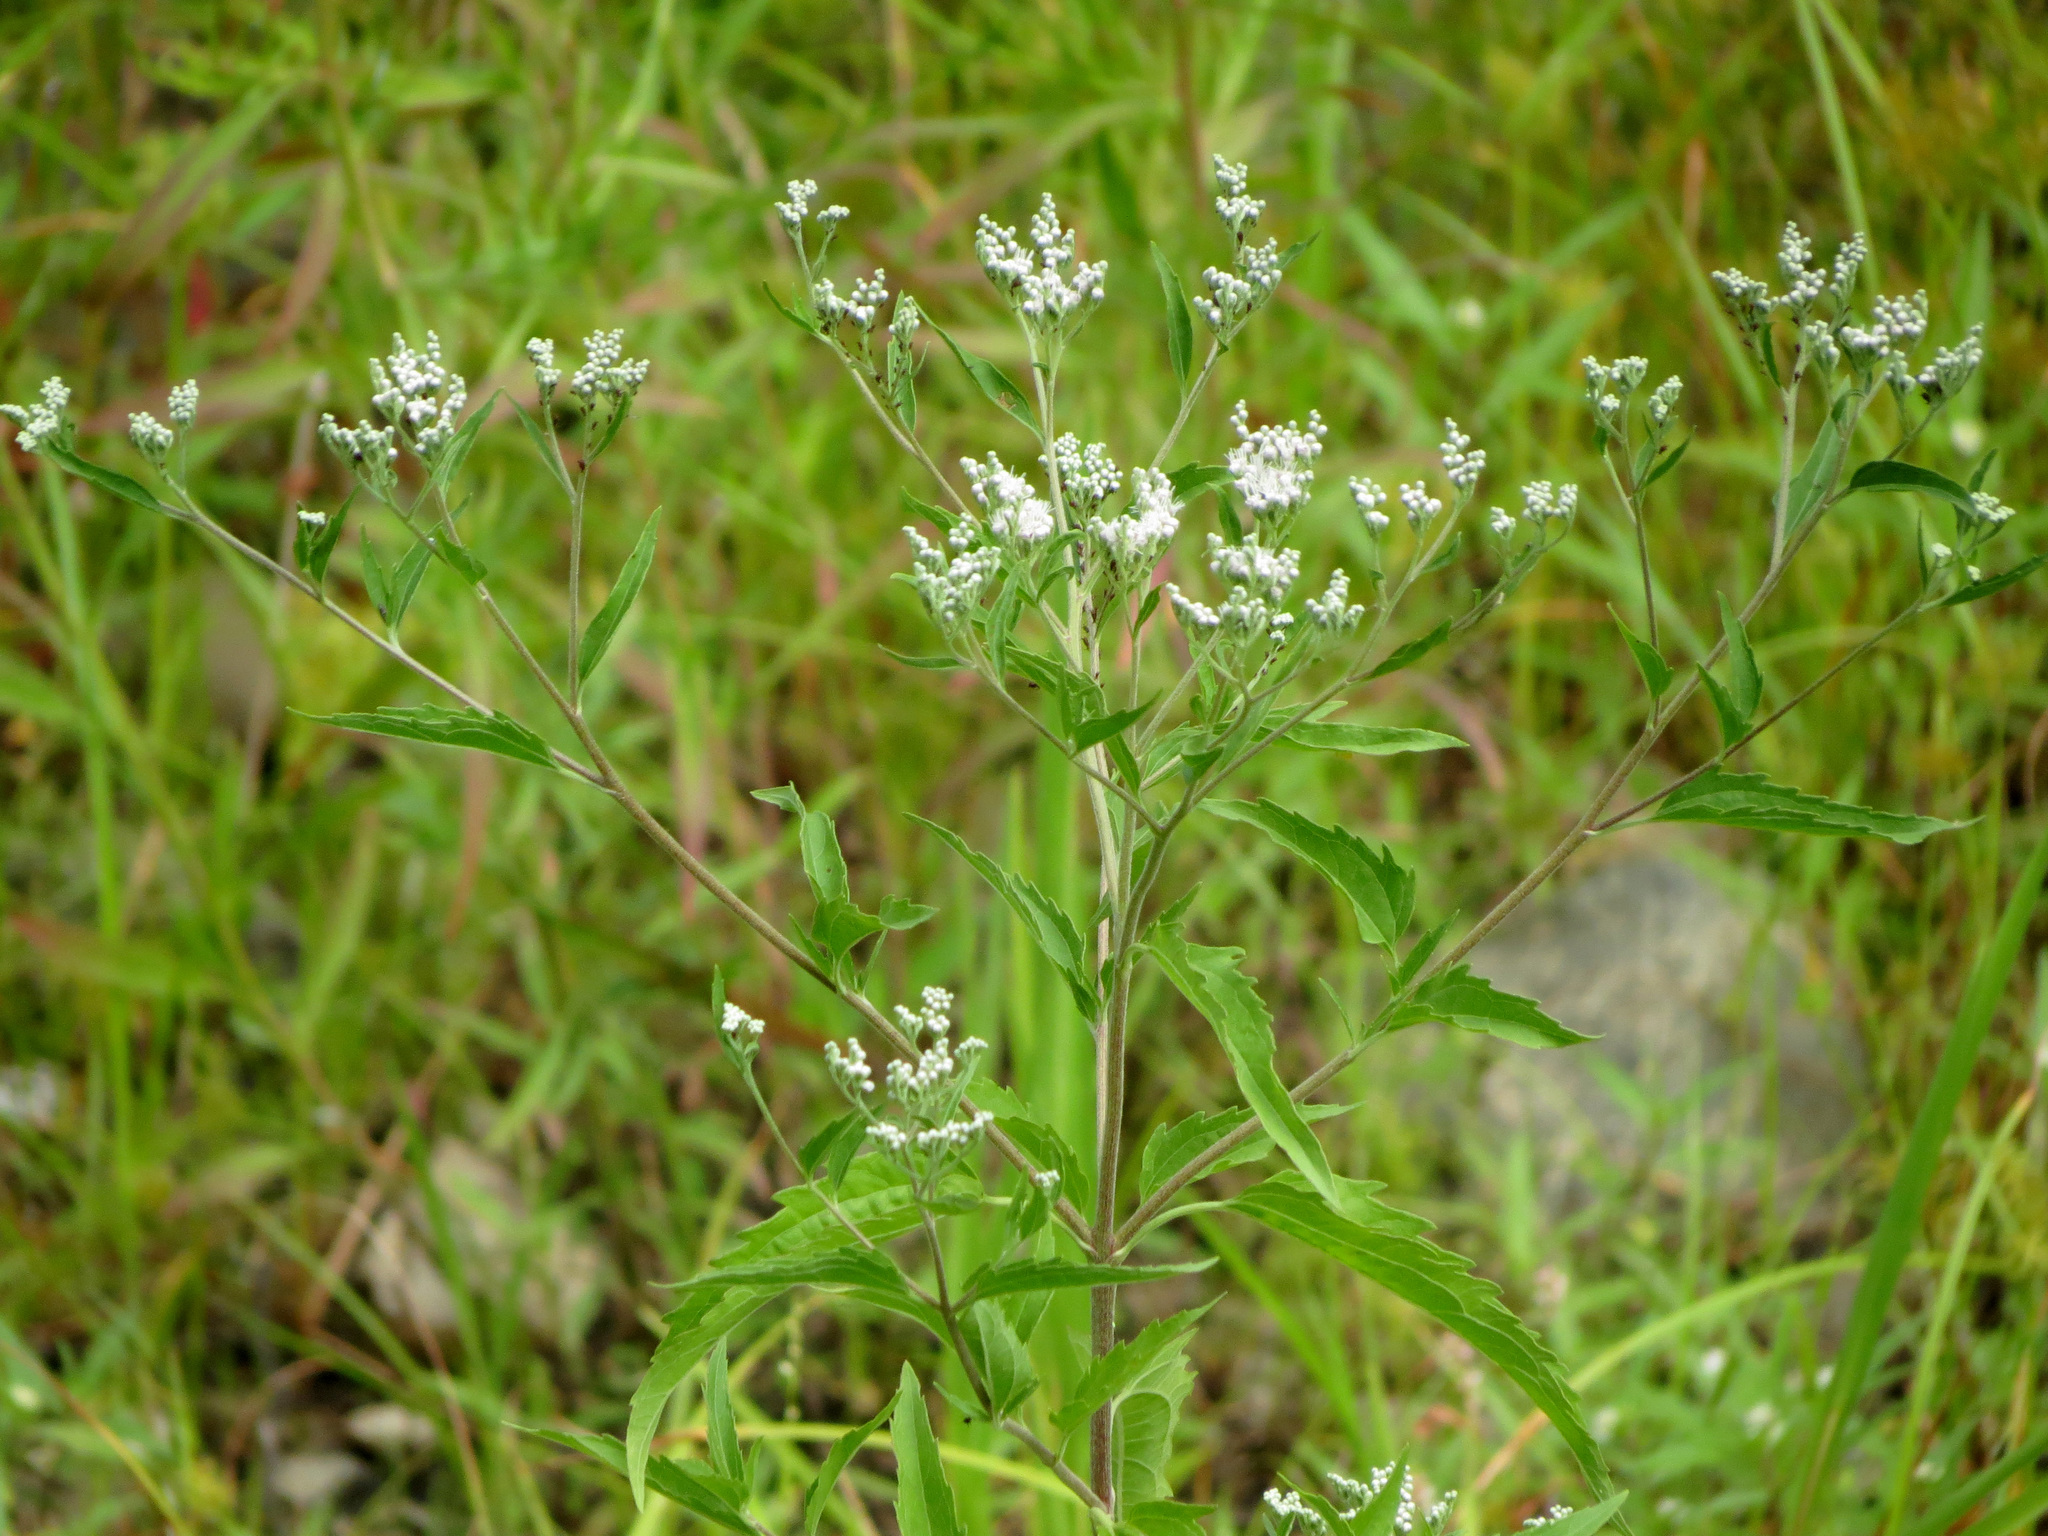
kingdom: Plantae
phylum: Tracheophyta
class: Magnoliopsida
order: Asterales
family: Asteraceae
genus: Eupatorium
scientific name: Eupatorium serotinum
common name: Late boneset
